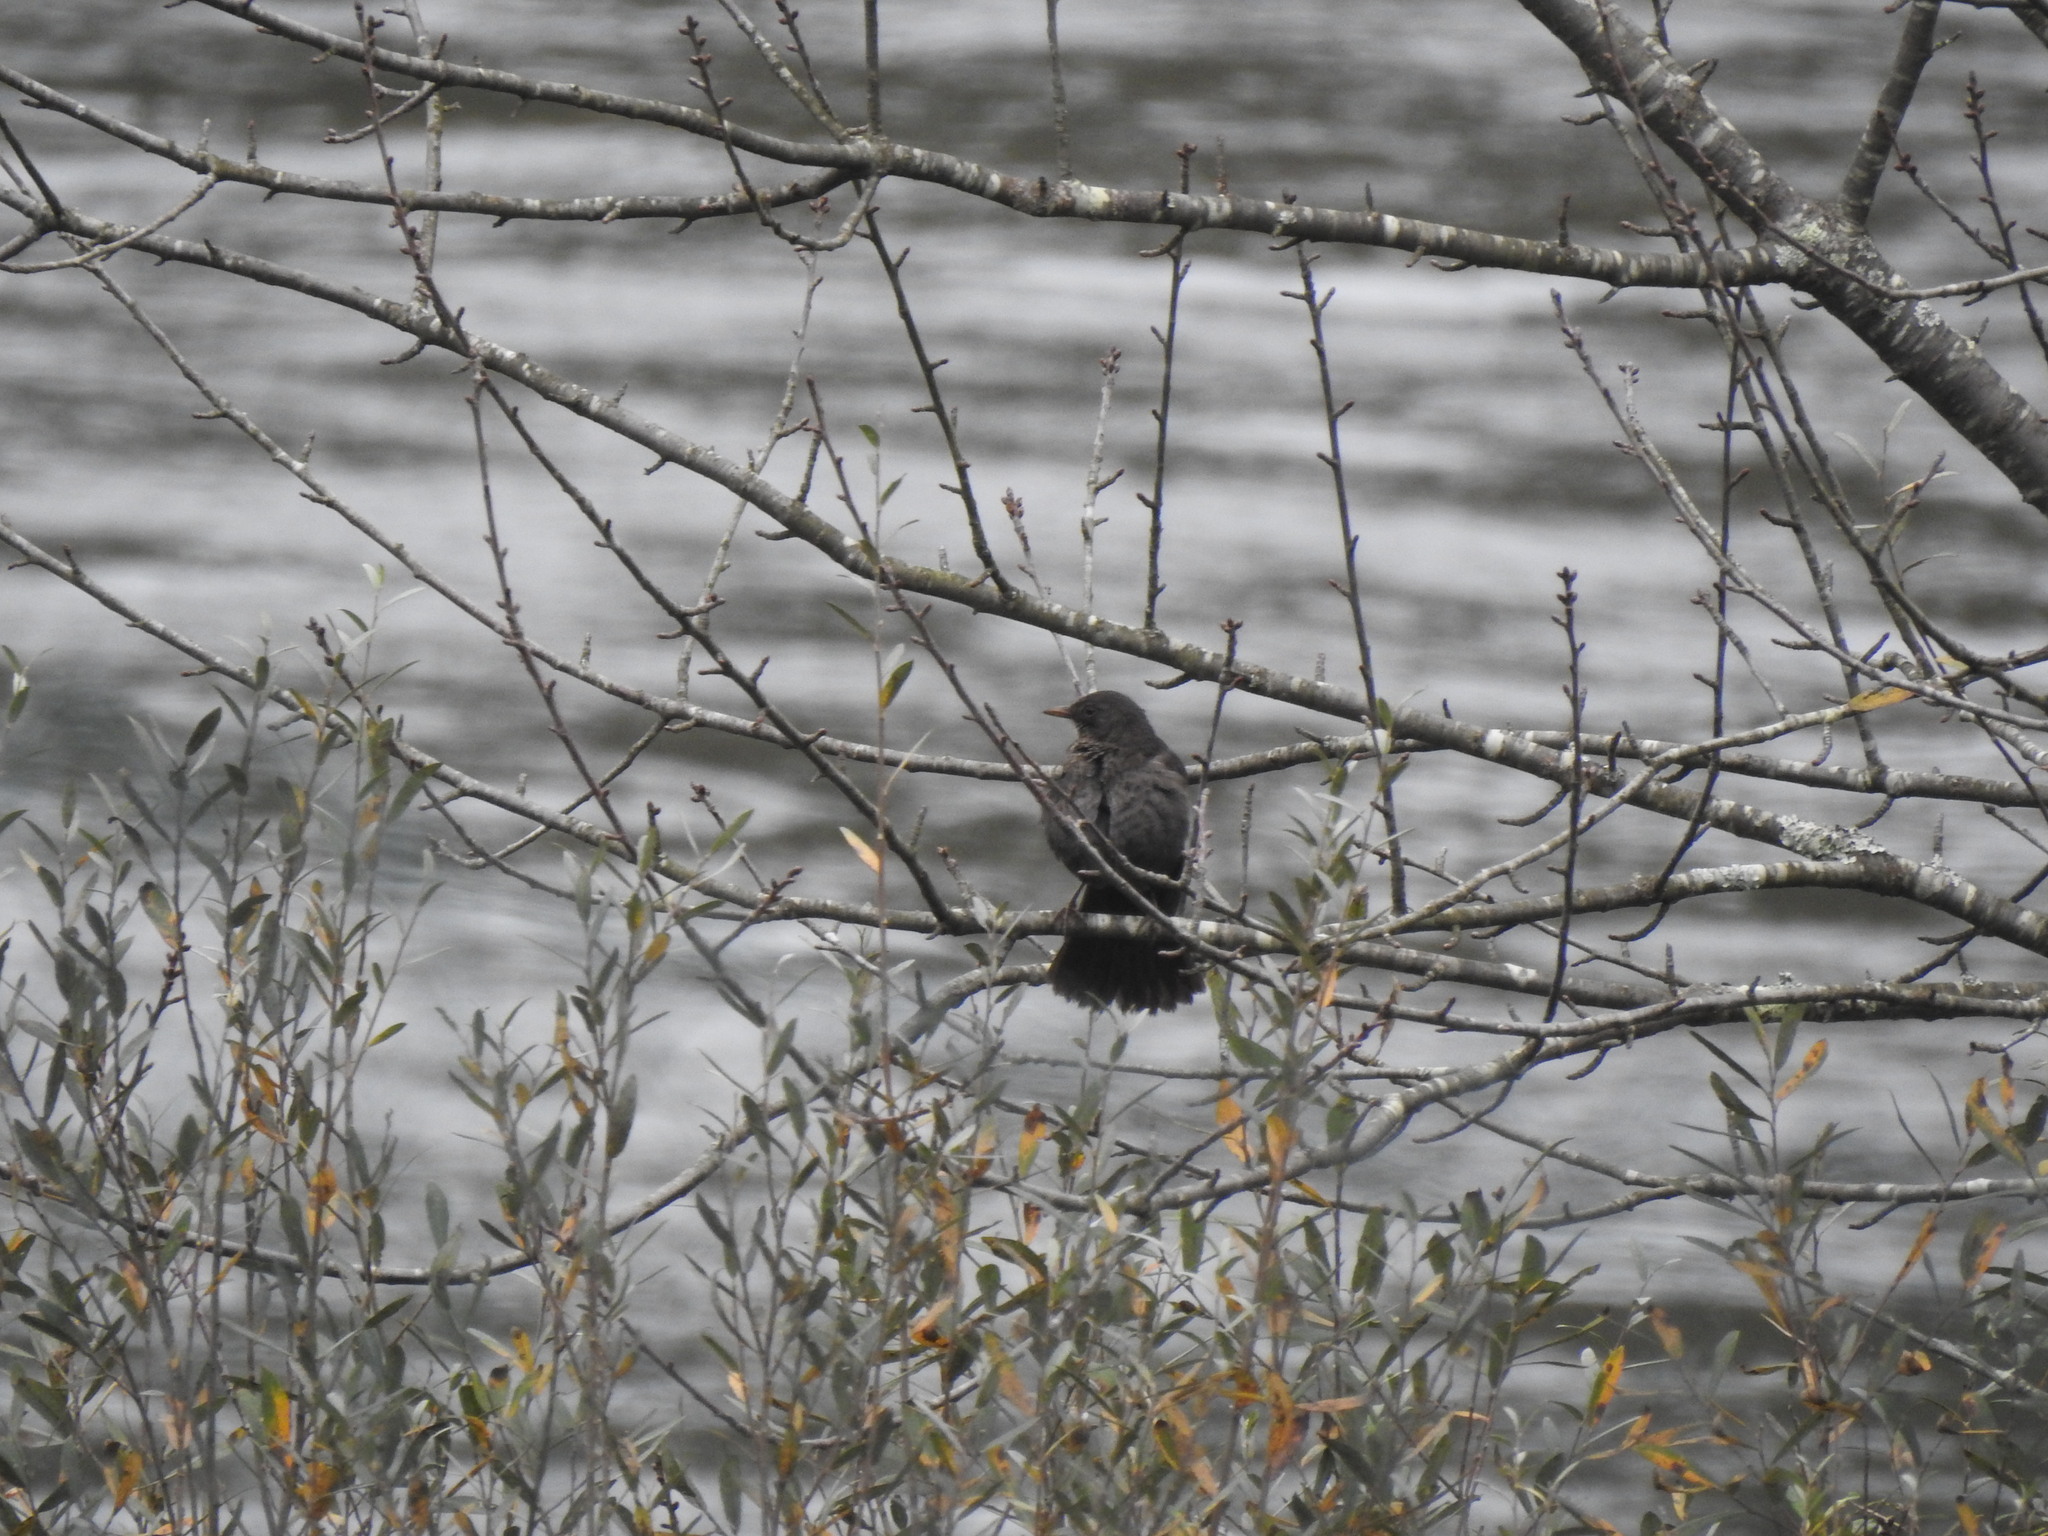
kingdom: Animalia
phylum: Chordata
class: Aves
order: Passeriformes
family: Turdidae
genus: Turdus
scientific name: Turdus merula
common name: Common blackbird
